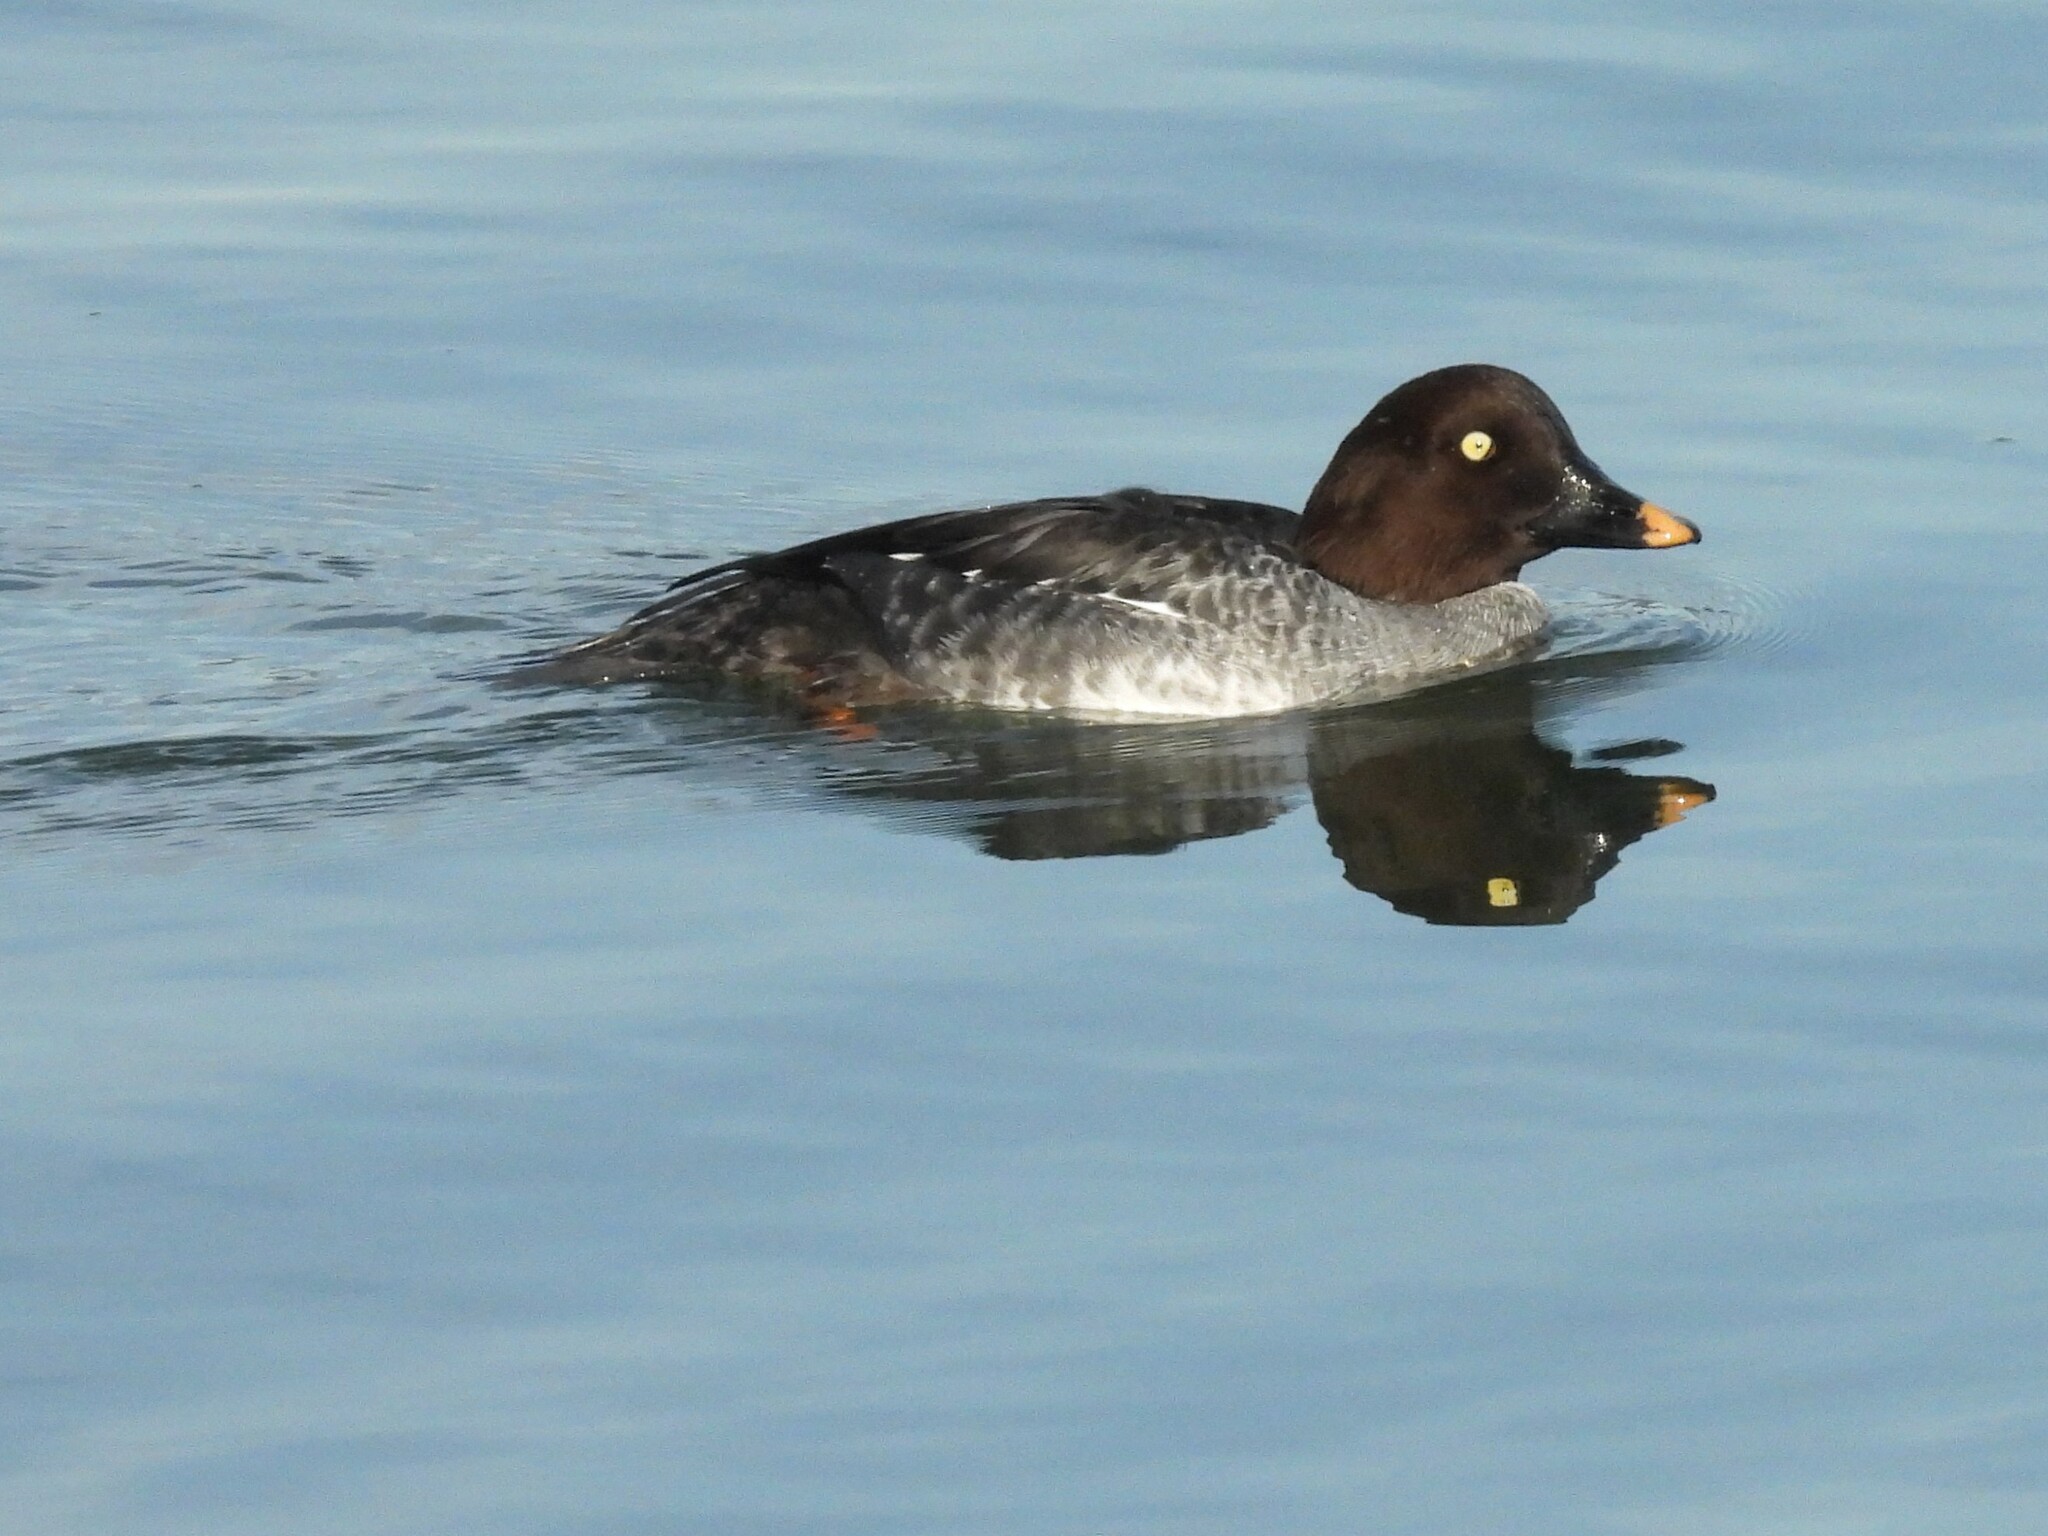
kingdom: Animalia
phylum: Chordata
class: Aves
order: Anseriformes
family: Anatidae
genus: Bucephala
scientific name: Bucephala clangula
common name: Common goldeneye
